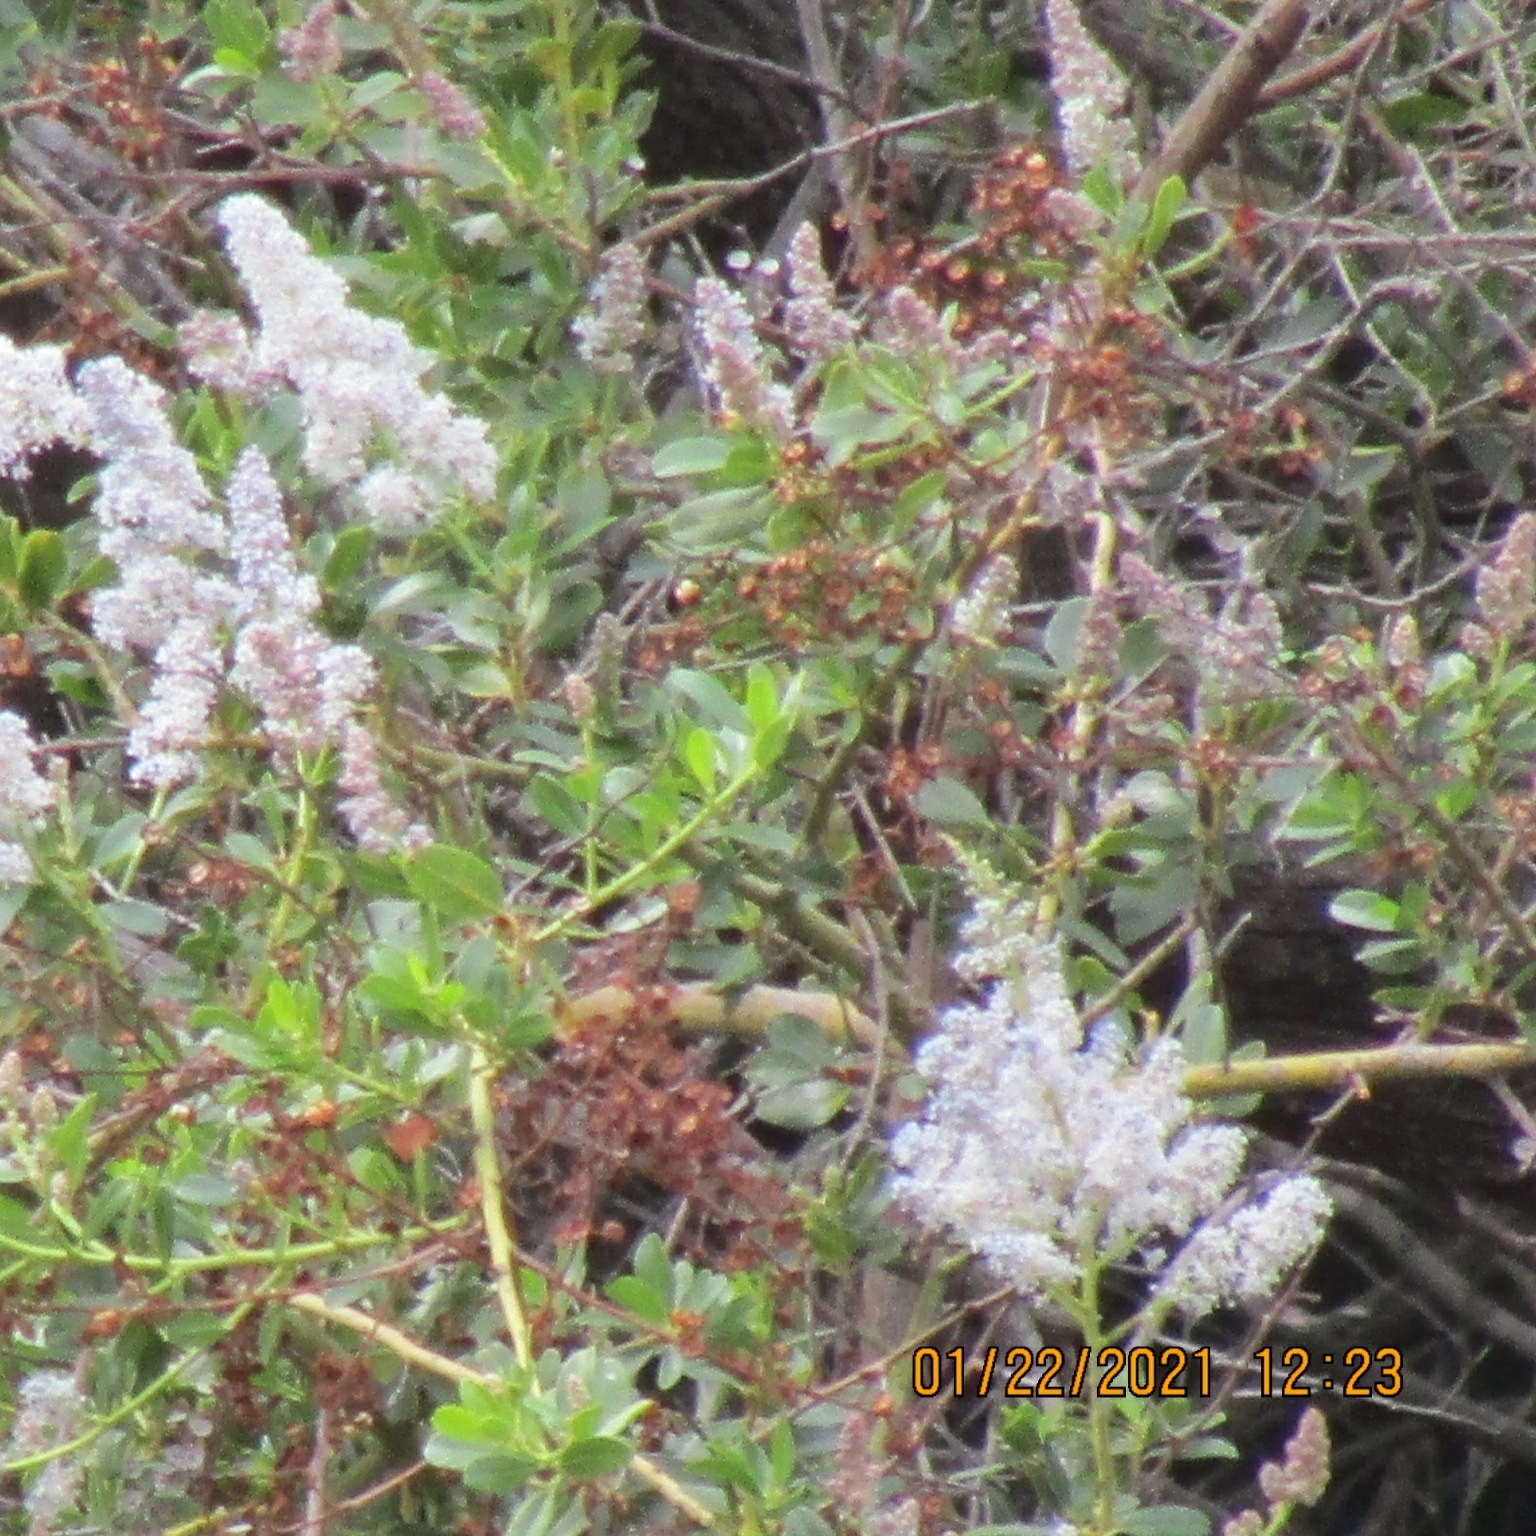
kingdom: Plantae
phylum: Tracheophyta
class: Magnoliopsida
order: Rosales
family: Rhamnaceae
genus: Ceanothus
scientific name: Ceanothus spinosus
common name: Greenbark whitethorn
